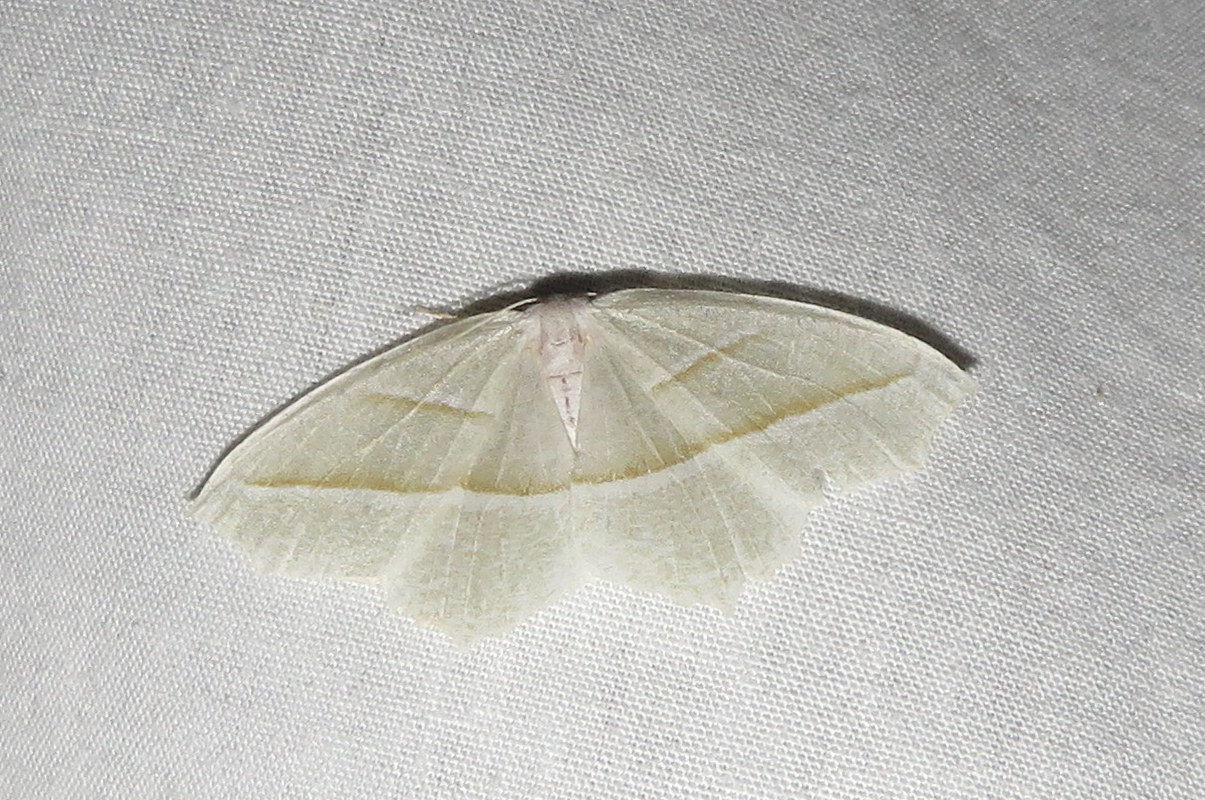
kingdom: Animalia
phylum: Arthropoda
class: Insecta
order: Lepidoptera
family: Geometridae
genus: Campaea
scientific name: Campaea perlata
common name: Fringed looper
